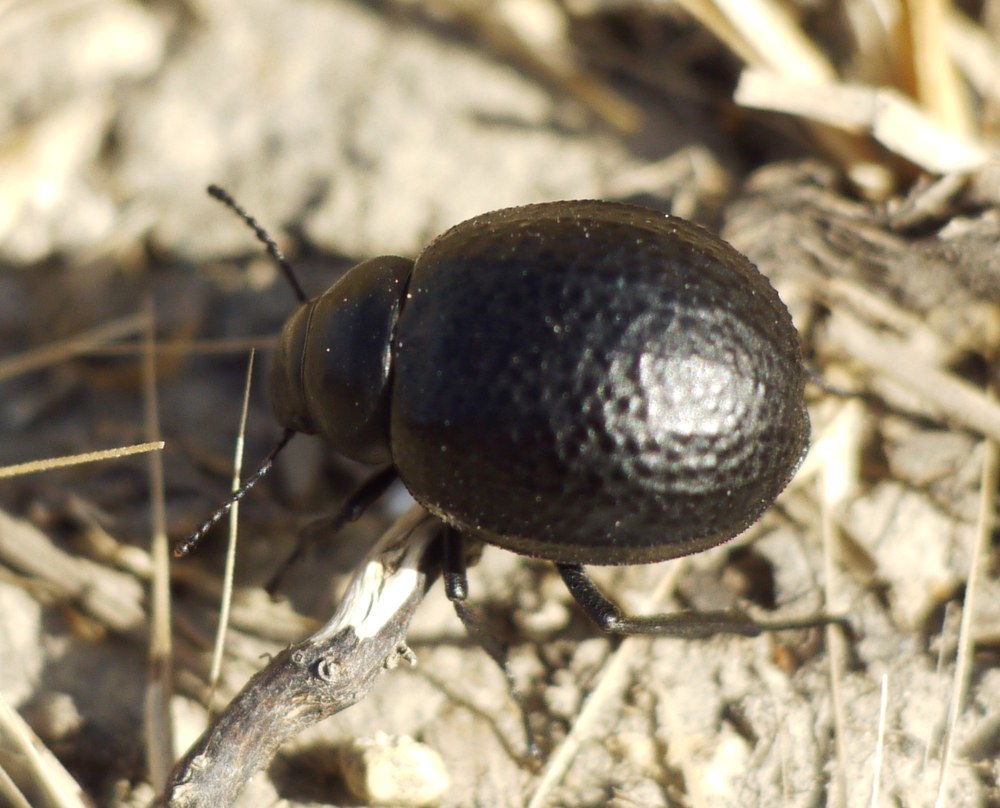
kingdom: Animalia
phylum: Arthropoda
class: Insecta
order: Coleoptera
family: Tenebrionidae
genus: Pimelia
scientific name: Pimelia subglobosa
